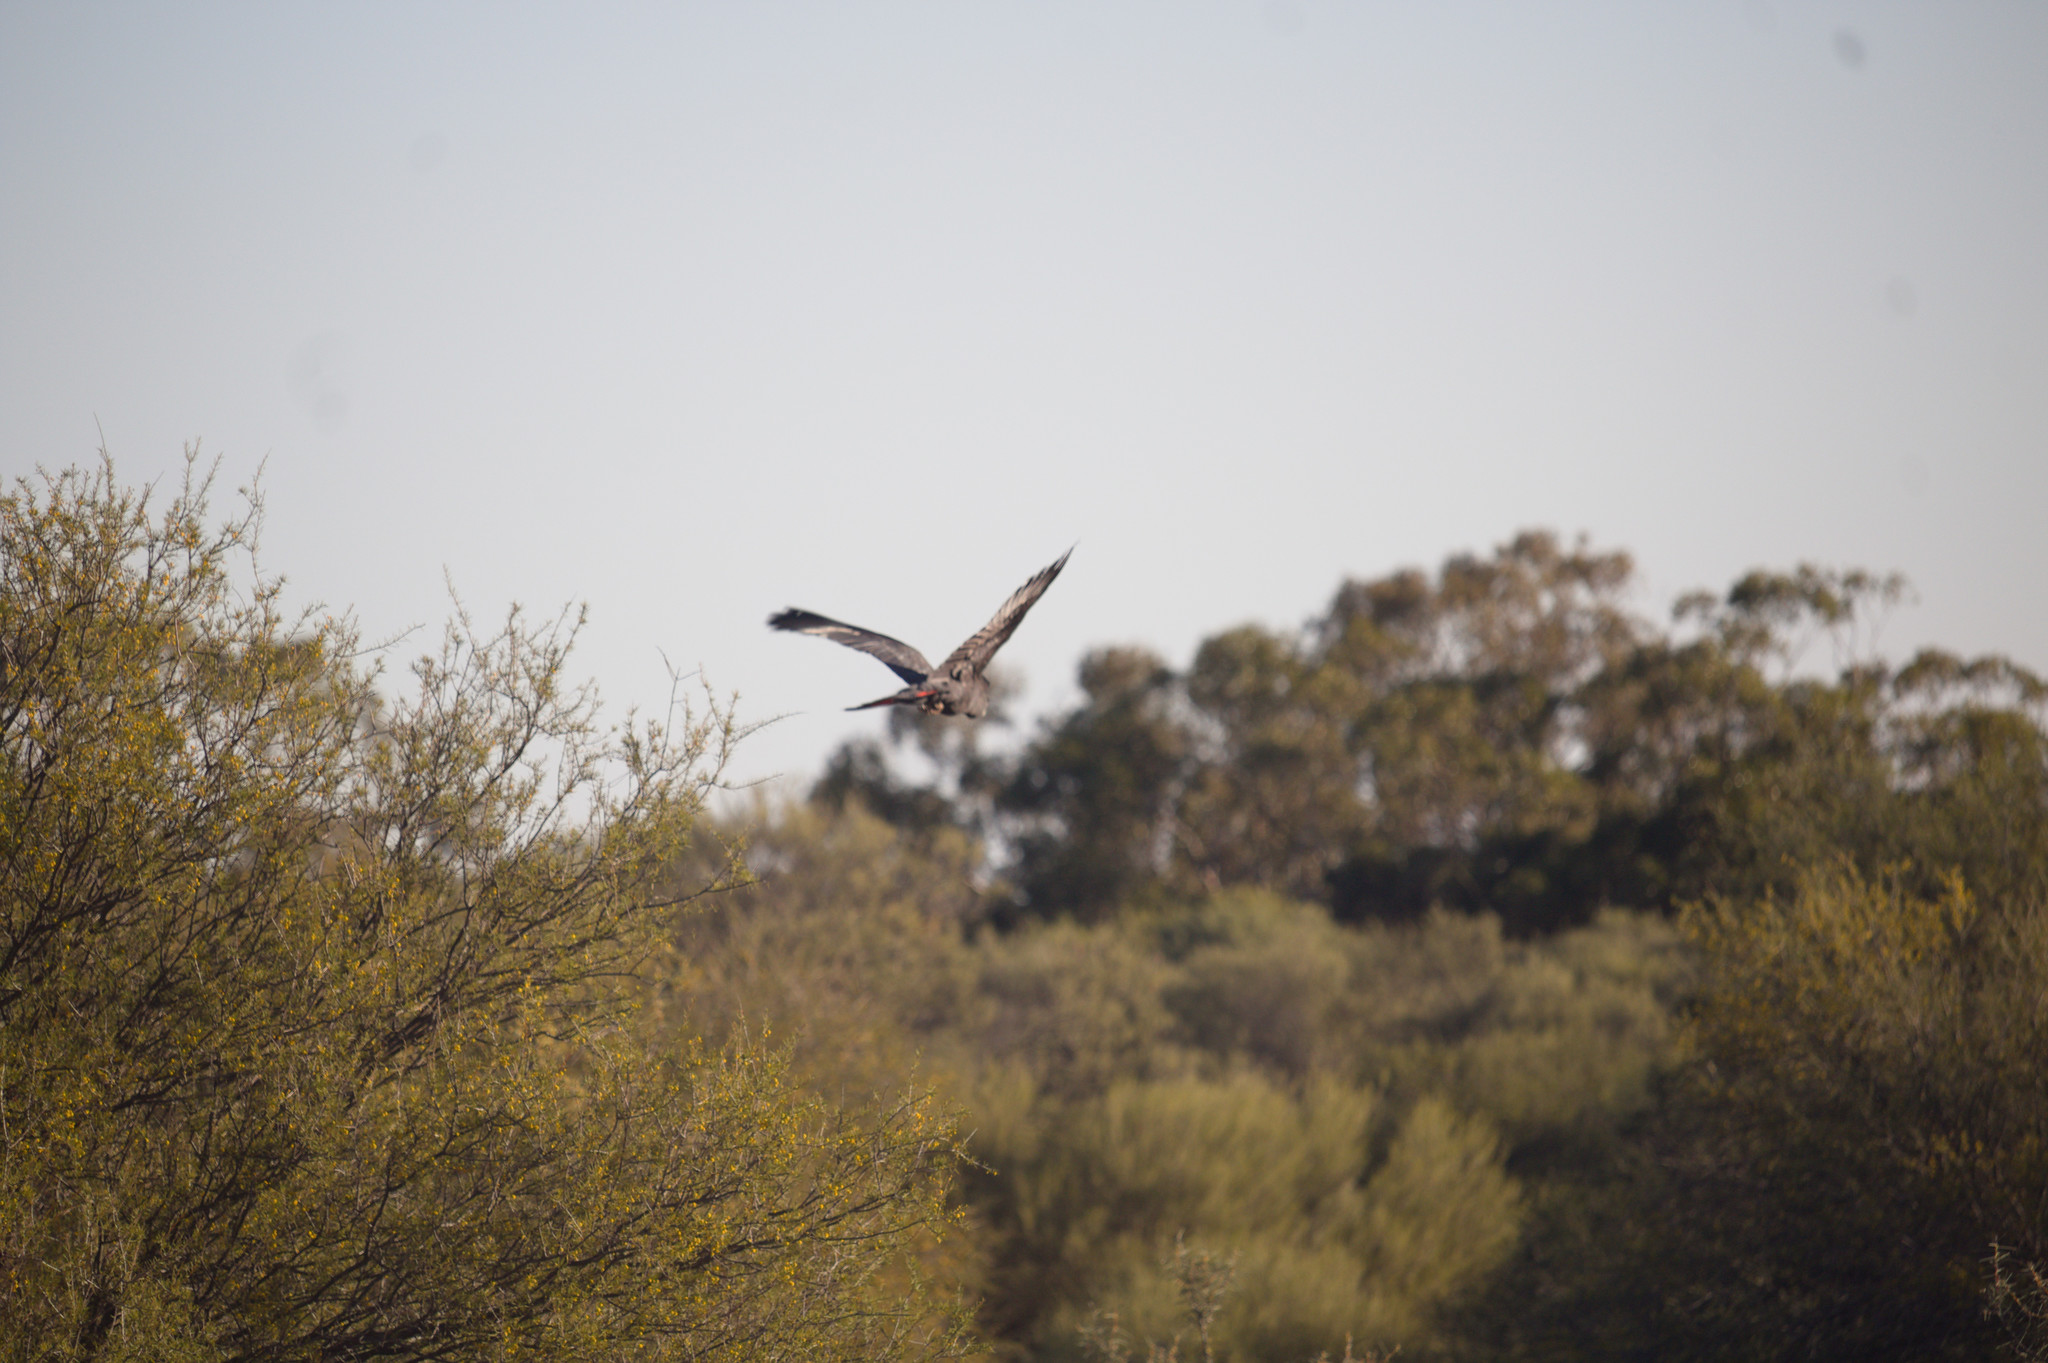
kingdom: Animalia
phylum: Chordata
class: Aves
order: Psittaciformes
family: Psittacidae
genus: Calyptorhynchus
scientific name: Calyptorhynchus banksii
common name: Red-tailed black cockatoo
